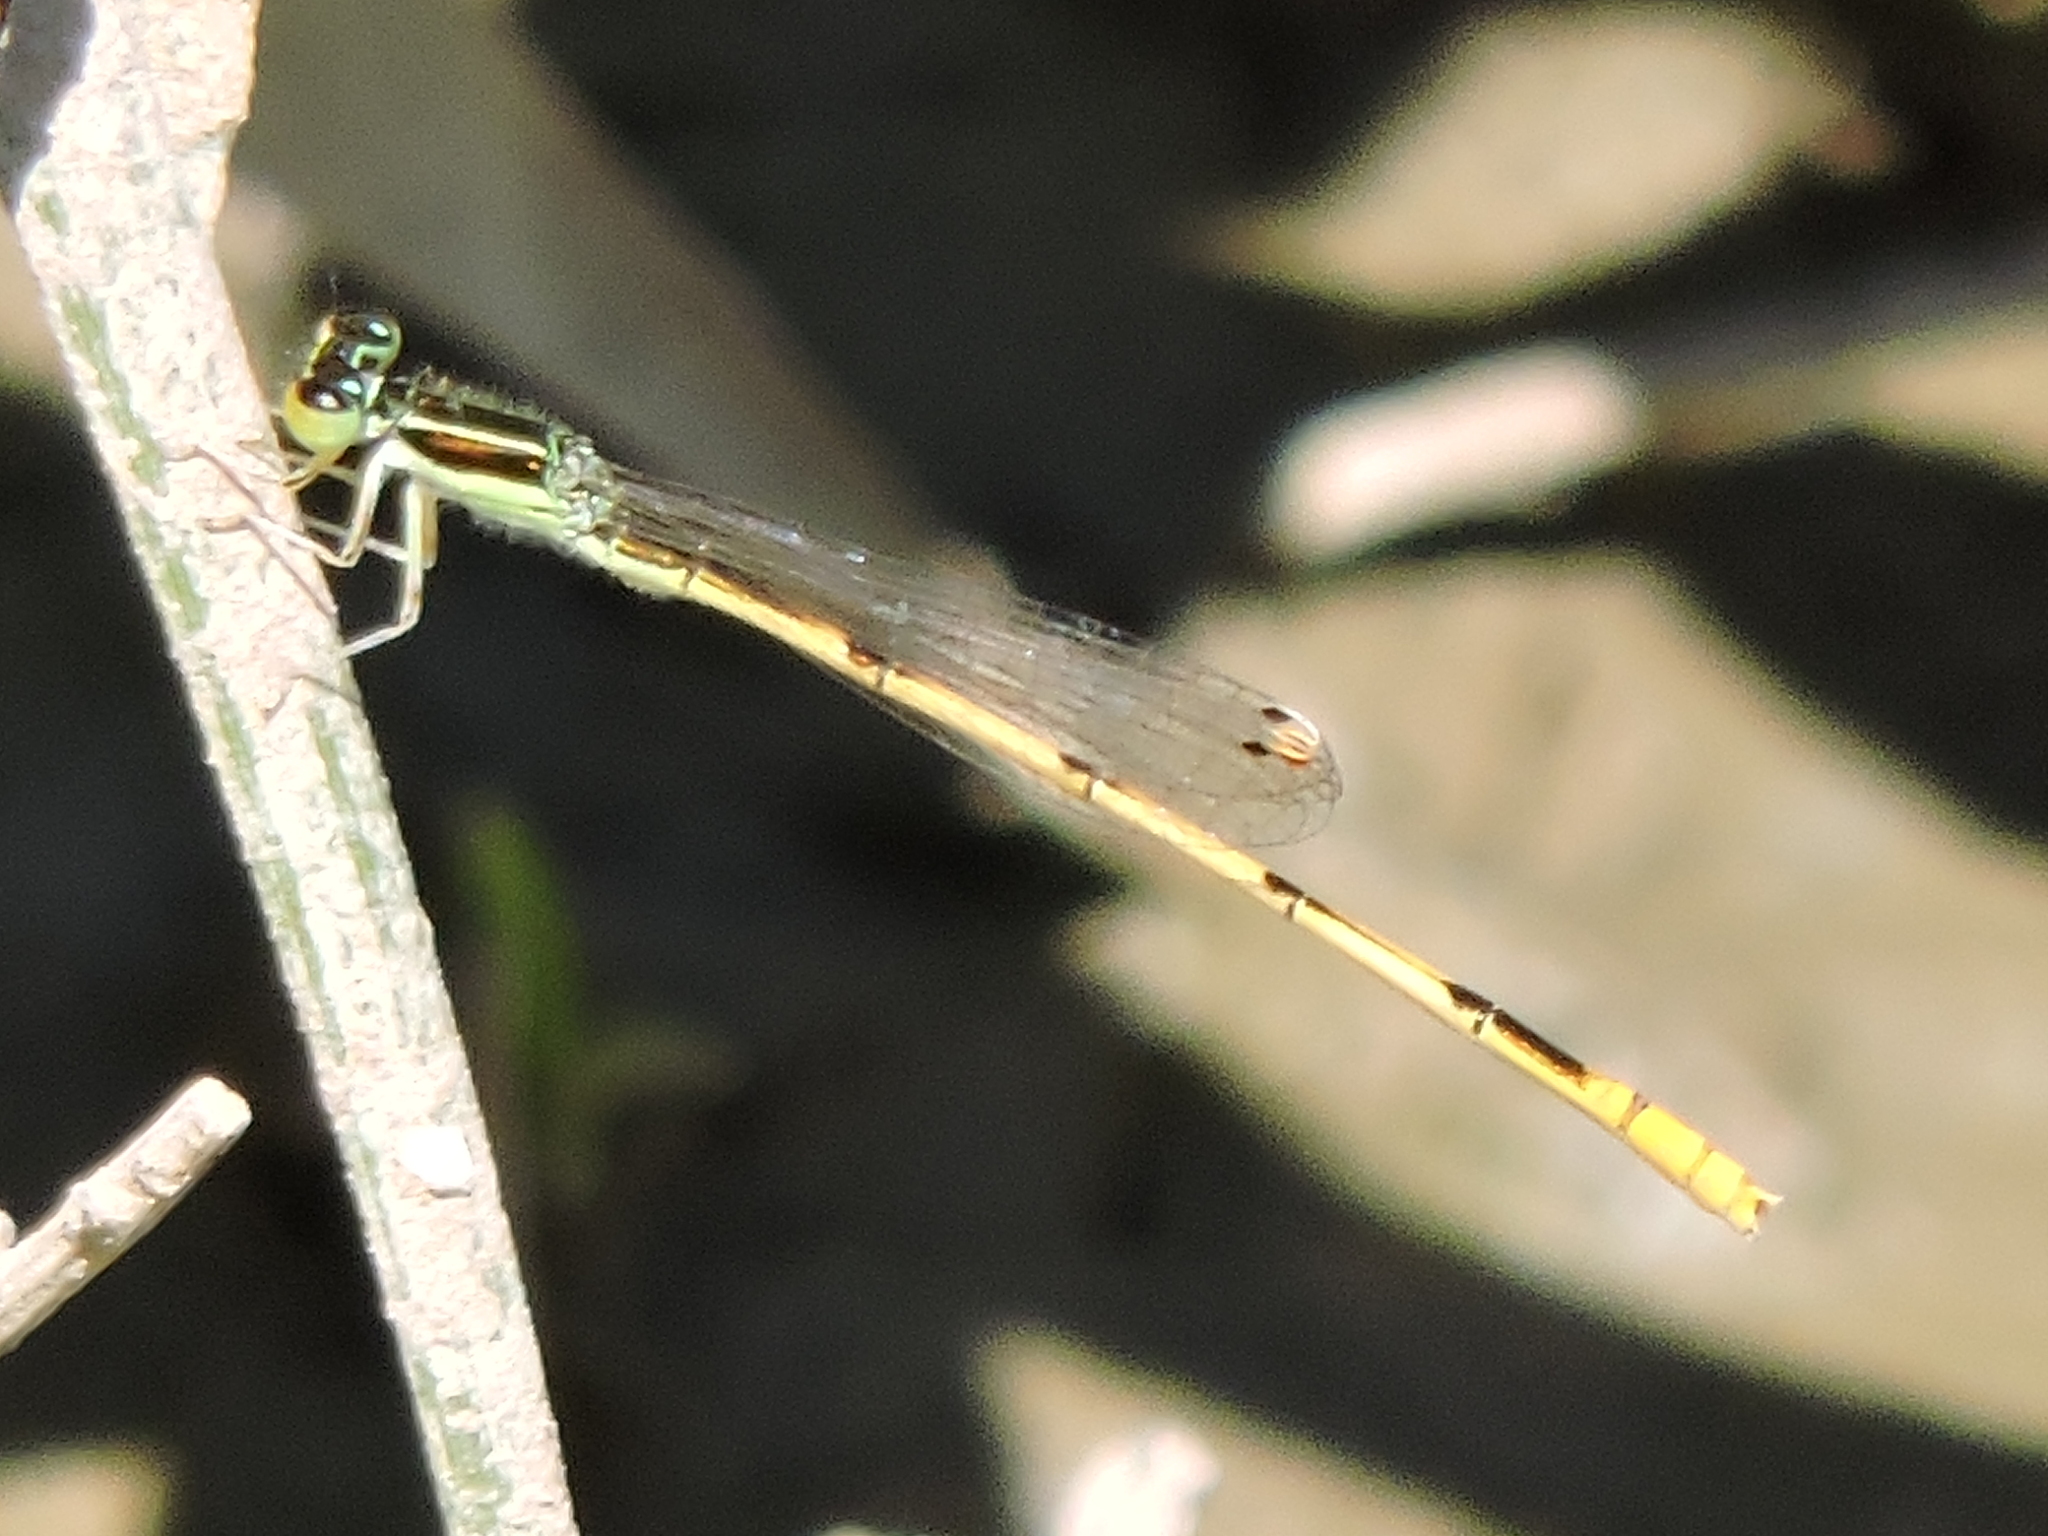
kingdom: Animalia
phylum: Arthropoda
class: Insecta
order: Odonata
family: Coenagrionidae
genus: Ischnura
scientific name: Ischnura hastata
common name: Citrine forktail
